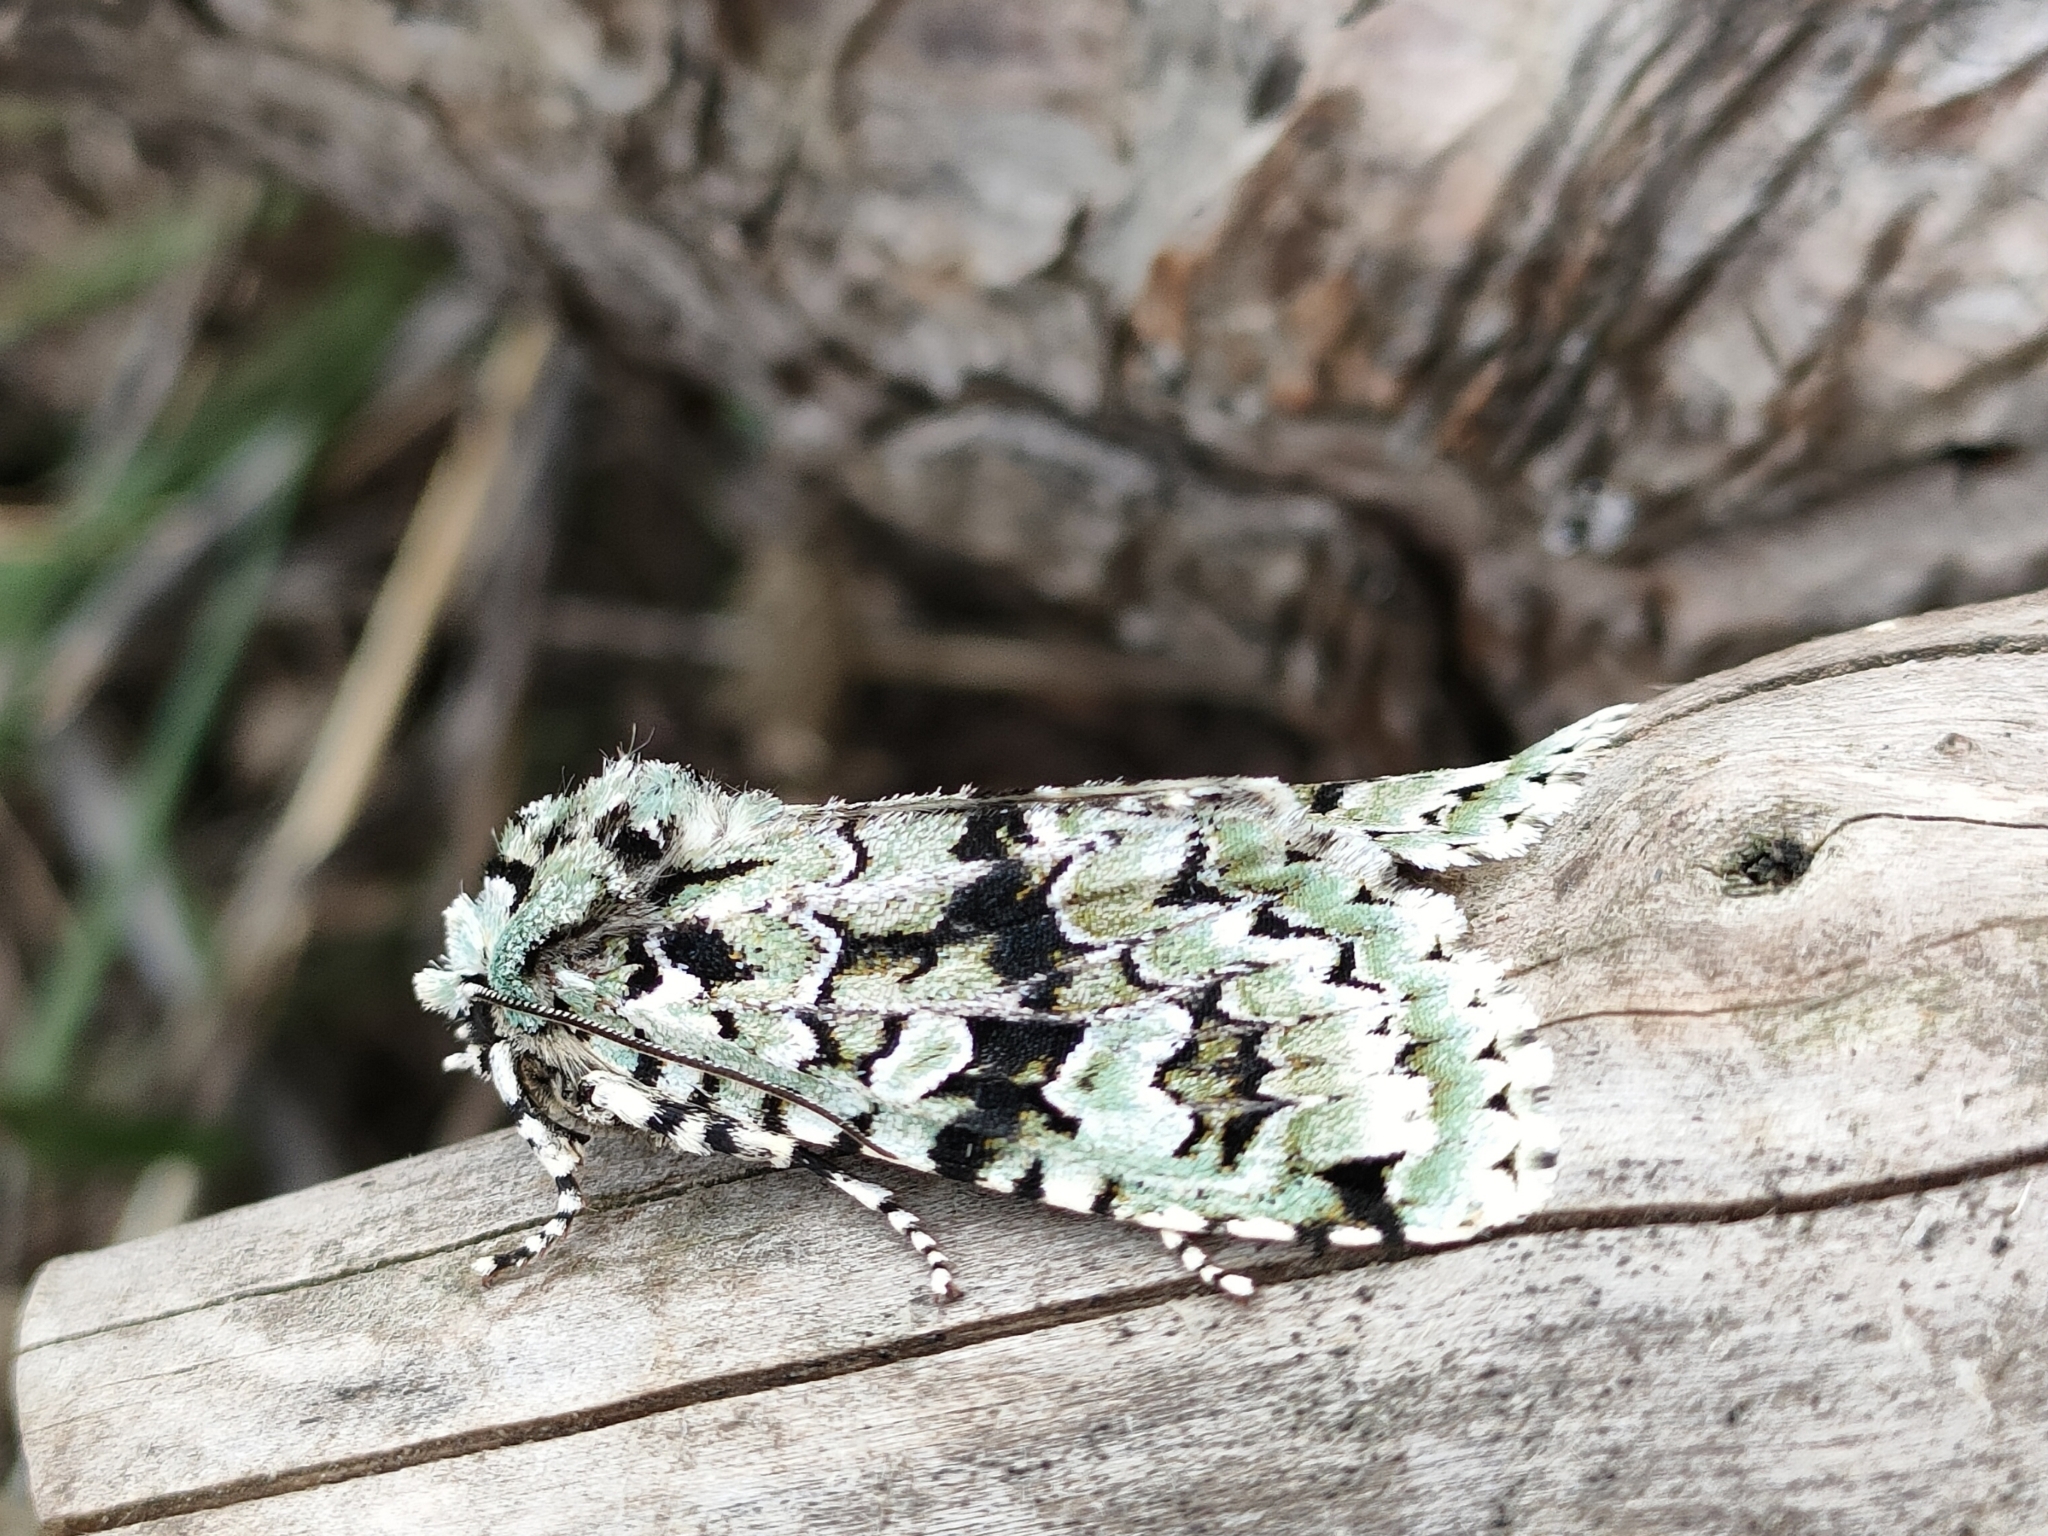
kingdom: Animalia
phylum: Arthropoda
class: Insecta
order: Lepidoptera
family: Noctuidae
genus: Griposia
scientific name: Griposia aprilina
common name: Merveille du jour
